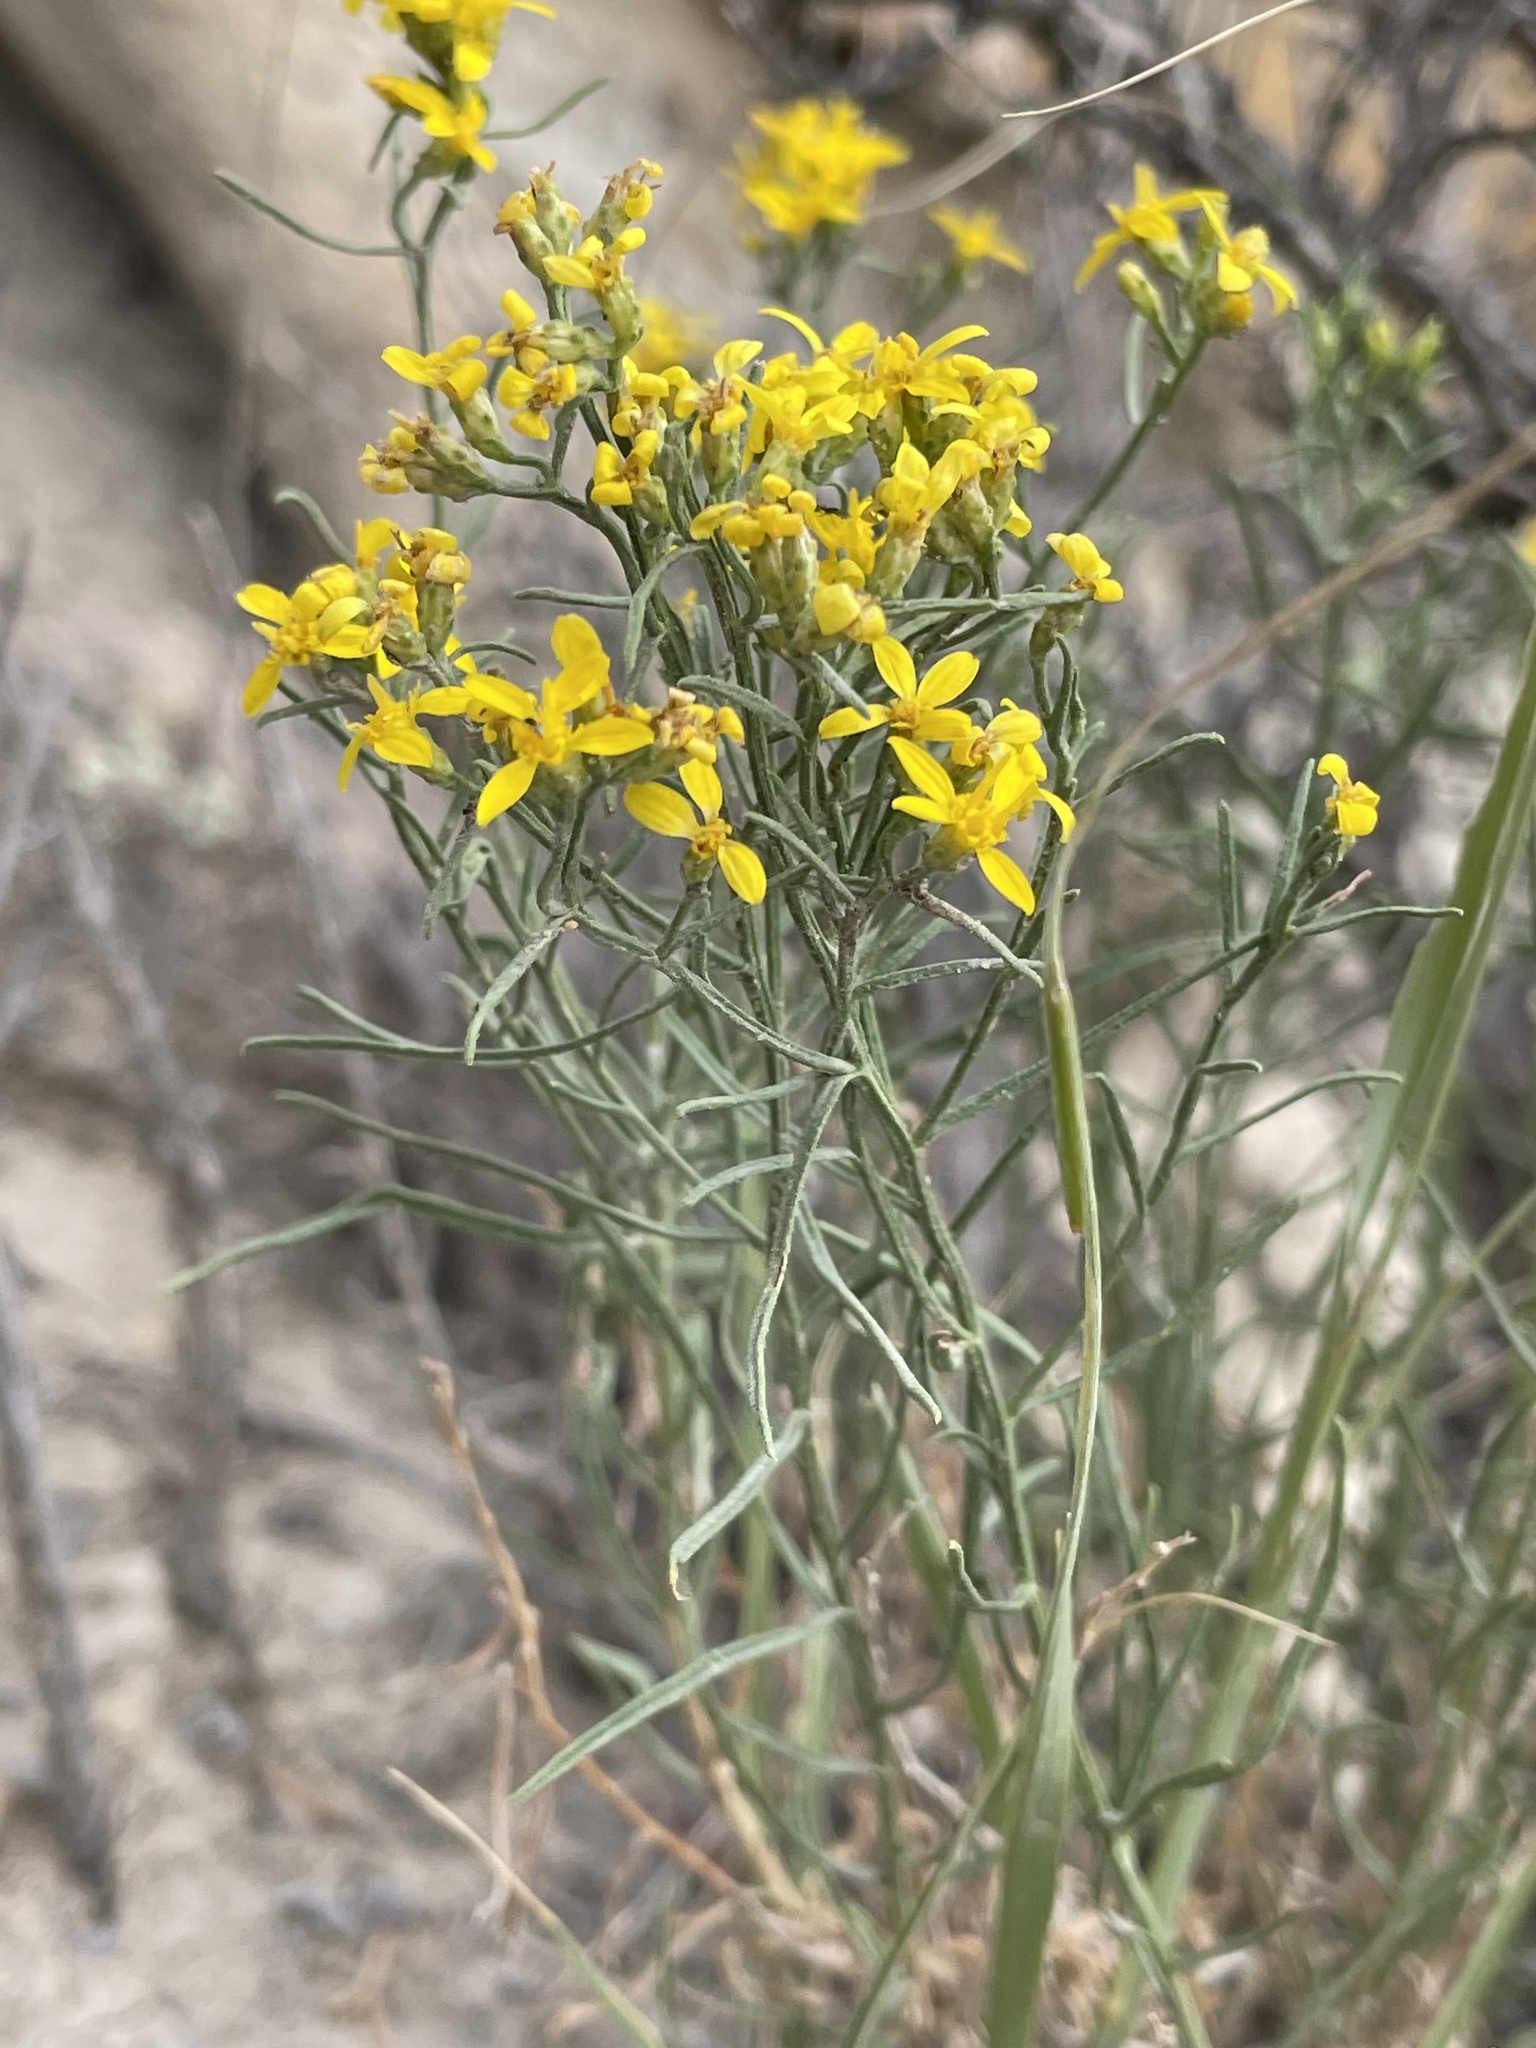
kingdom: Plantae
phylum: Tracheophyta
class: Magnoliopsida
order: Asterales
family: Asteraceae
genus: Gutierrezia
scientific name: Gutierrezia sarothrae
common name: Broom snakeweed
